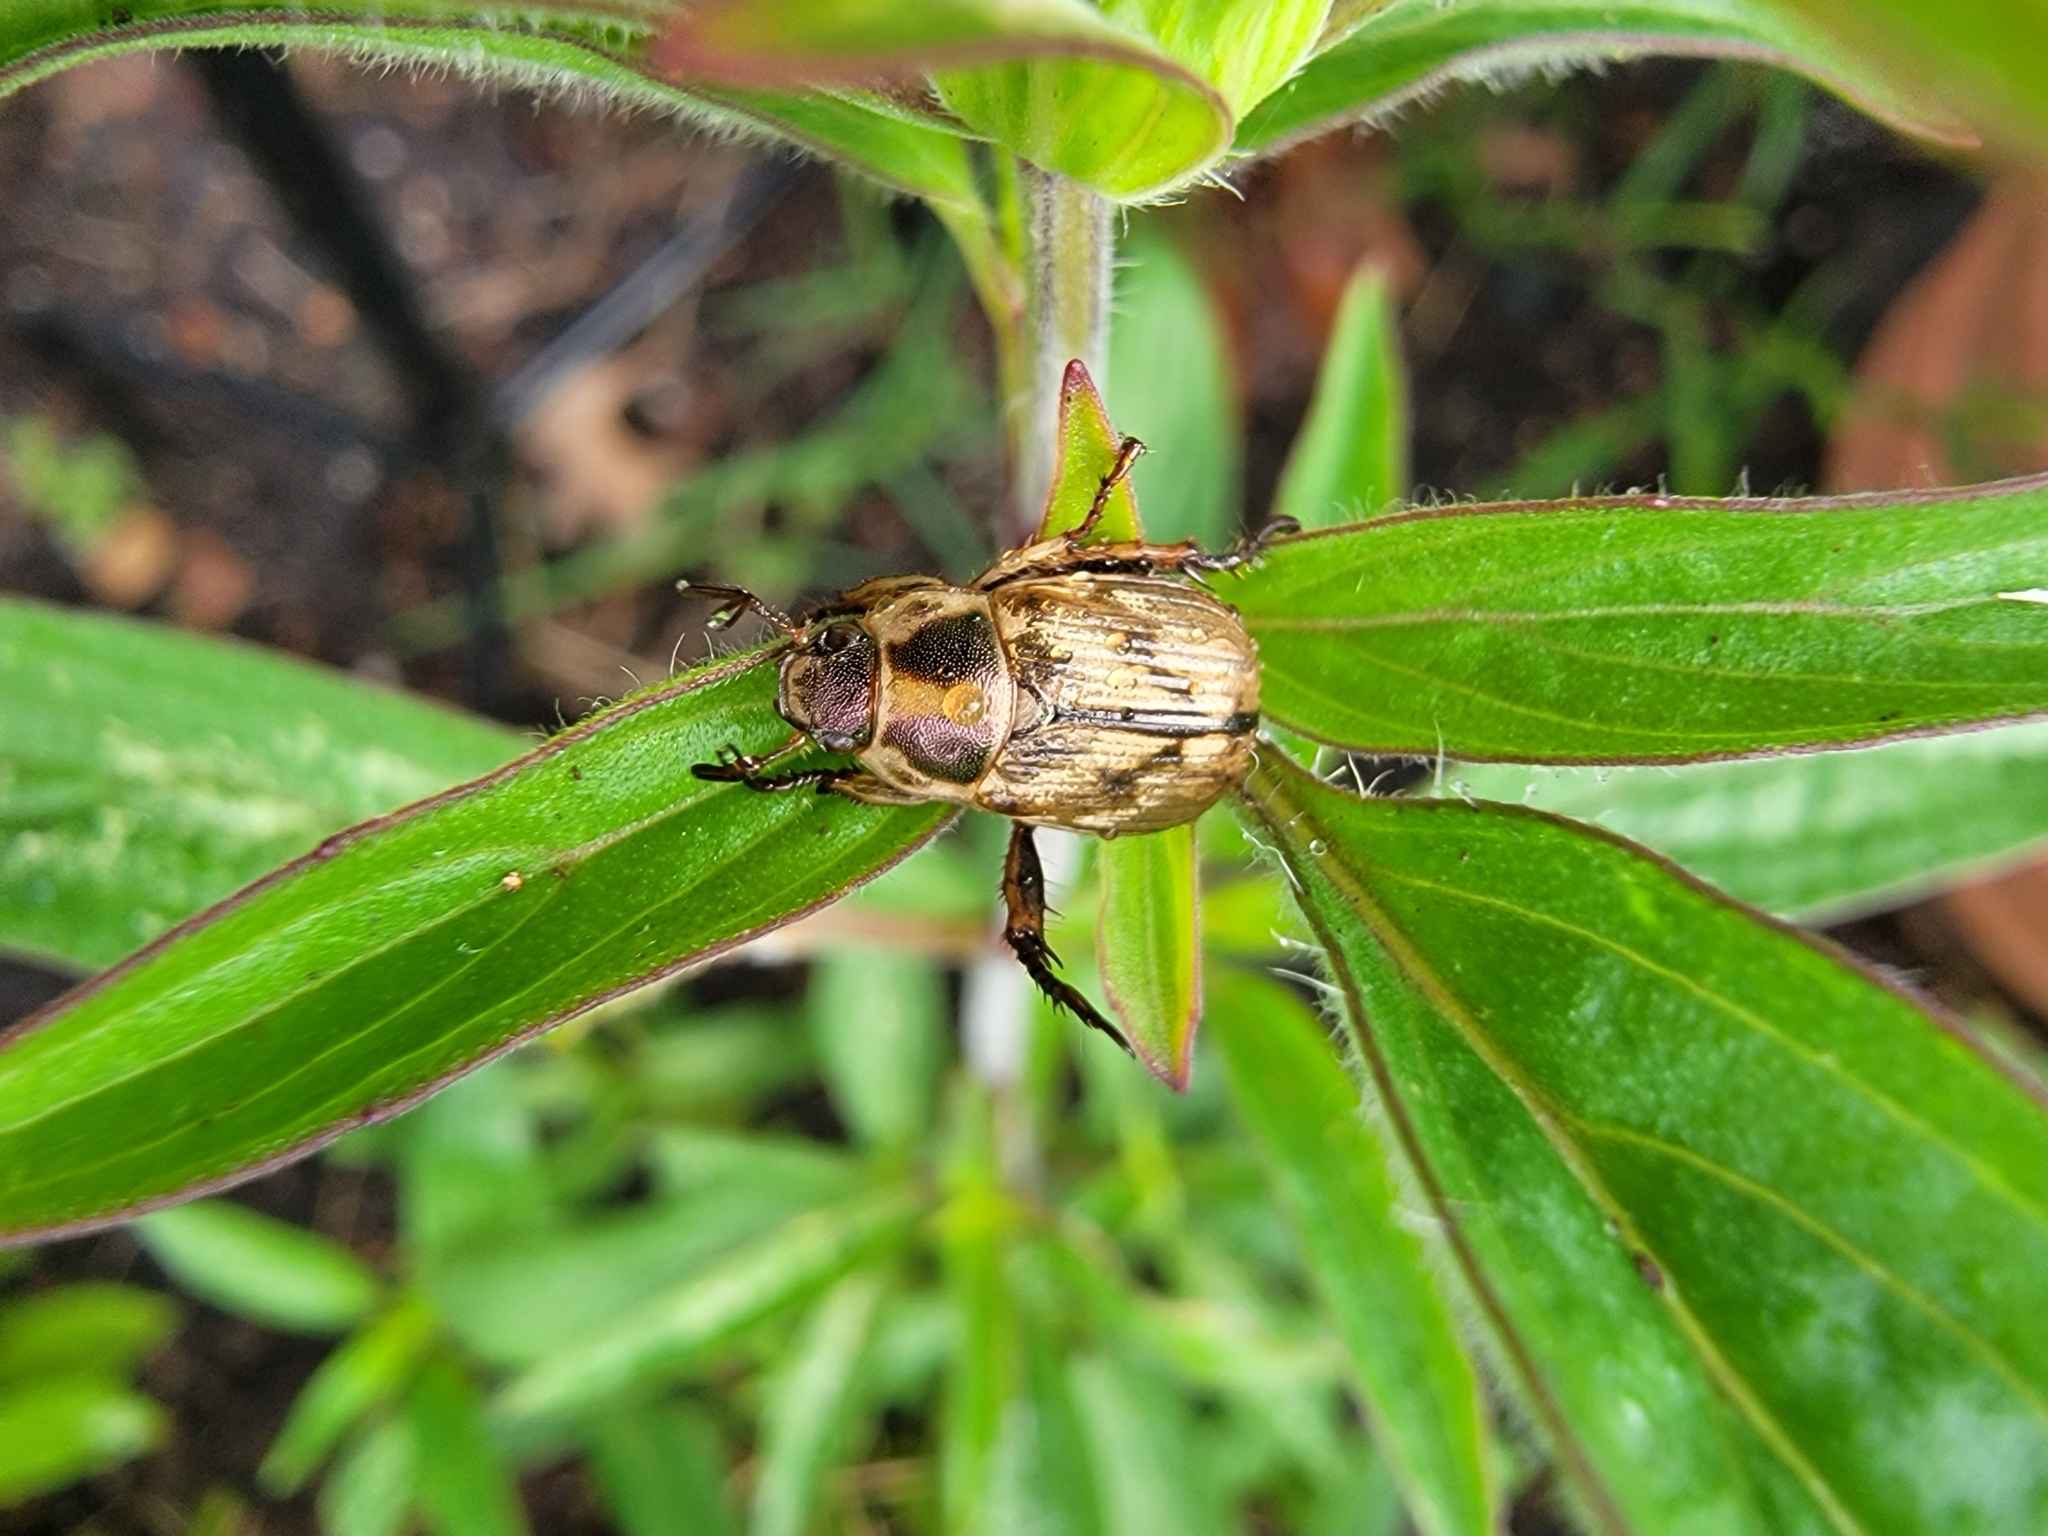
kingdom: Animalia
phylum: Arthropoda
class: Insecta
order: Coleoptera
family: Scarabaeidae
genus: Exomala
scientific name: Exomala orientalis
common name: Oriental beetle
